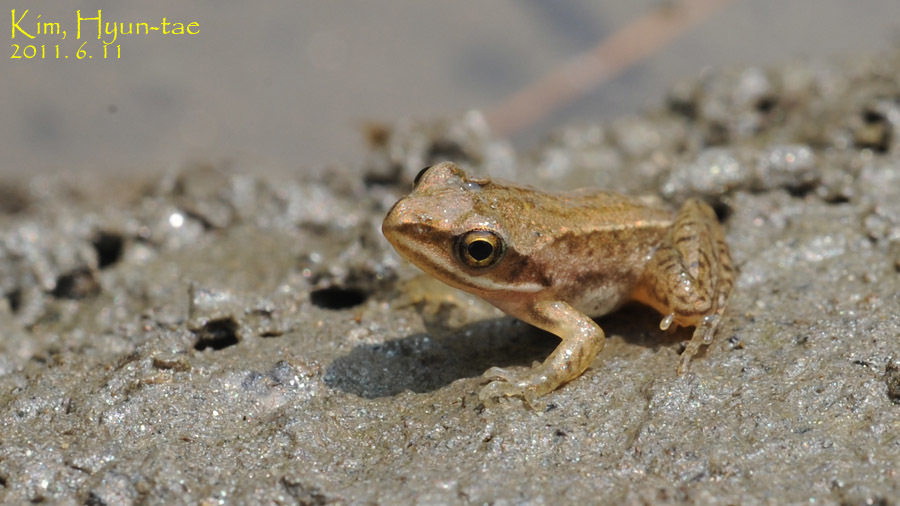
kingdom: Animalia
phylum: Chordata
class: Amphibia
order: Anura
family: Ranidae
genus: Rana
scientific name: Rana coreana
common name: Korean brown frog
